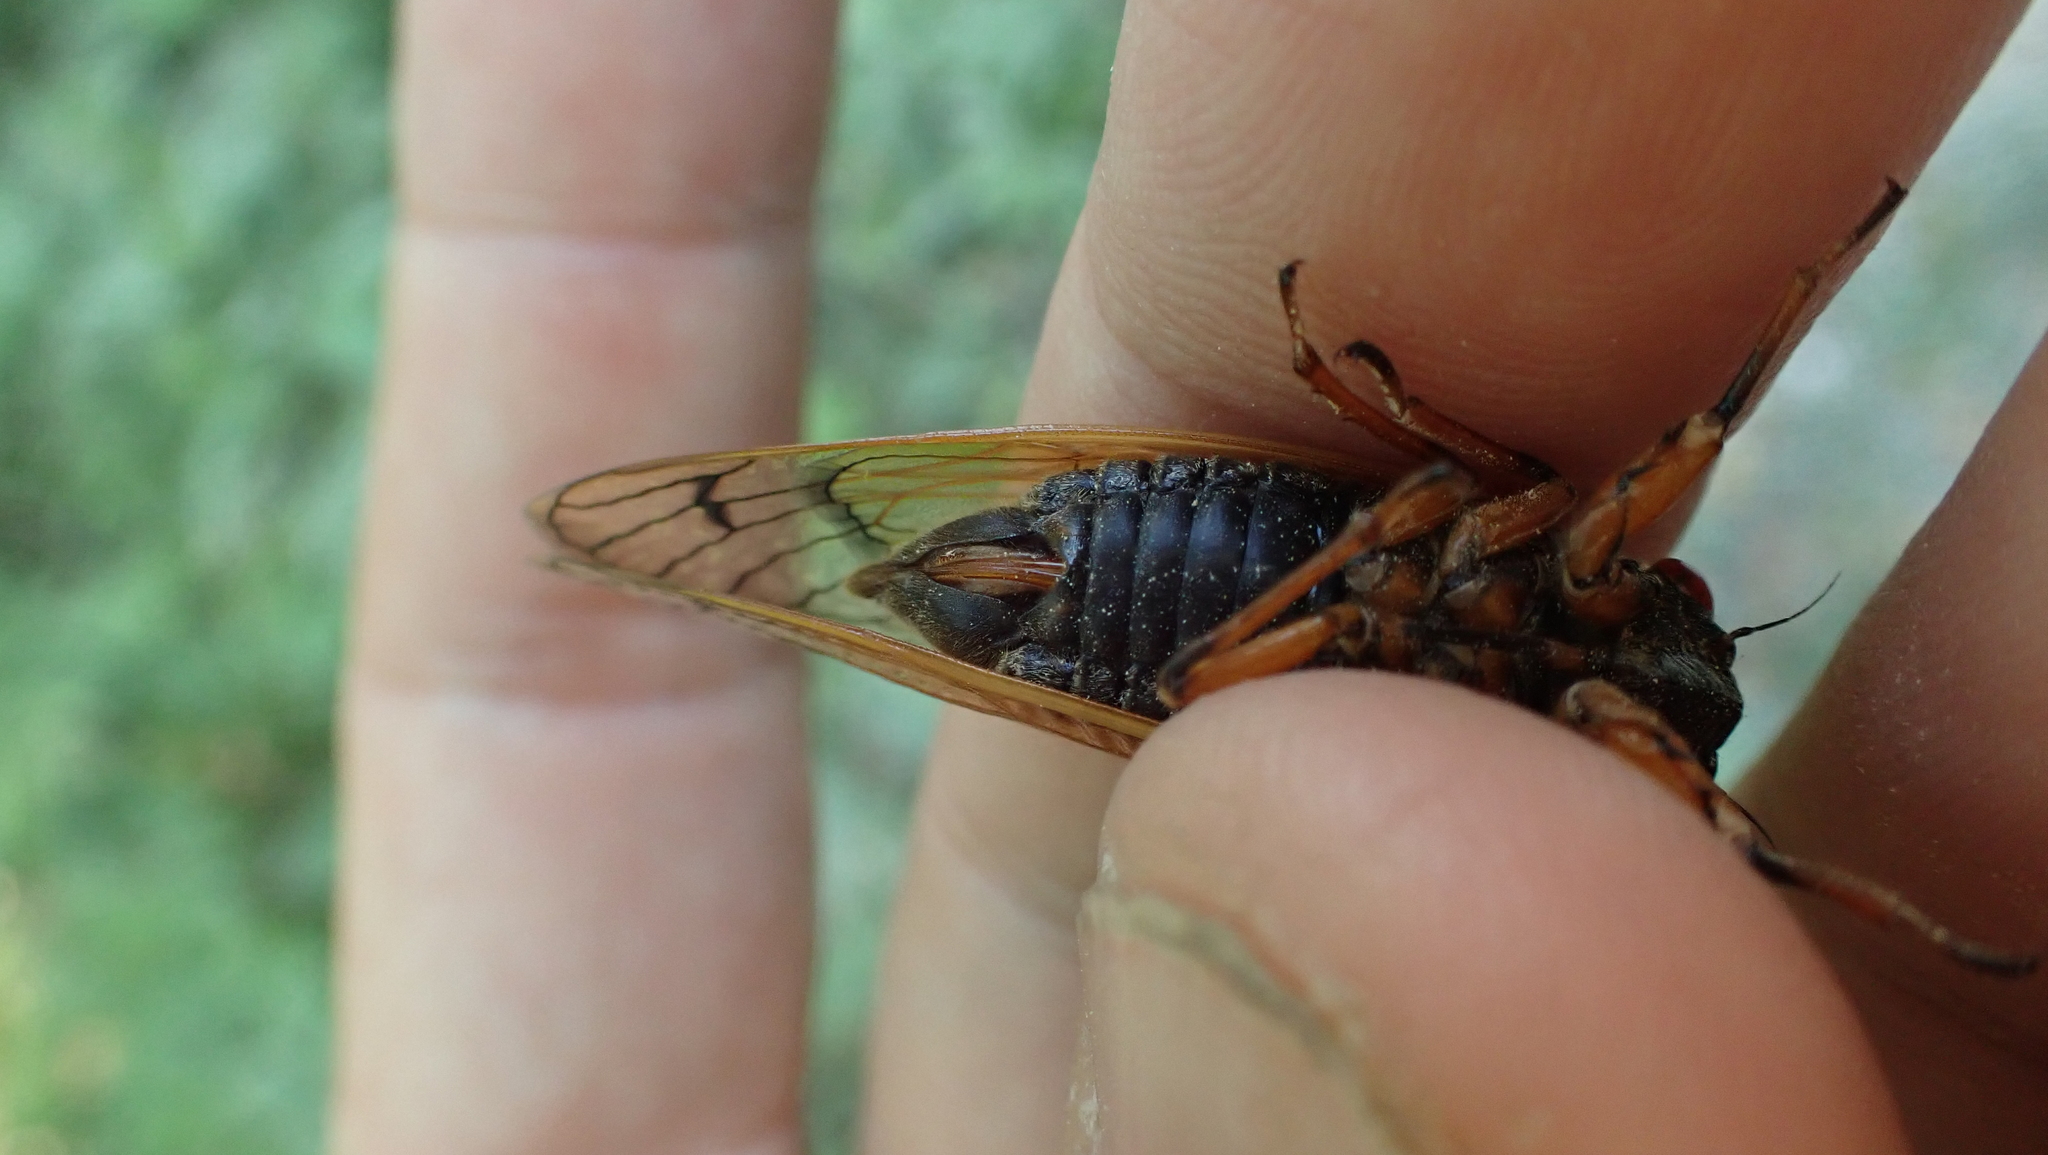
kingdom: Animalia
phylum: Arthropoda
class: Insecta
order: Hemiptera
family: Cicadidae
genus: Magicicada
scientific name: Magicicada cassini
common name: Cassin's 17-year cicada
